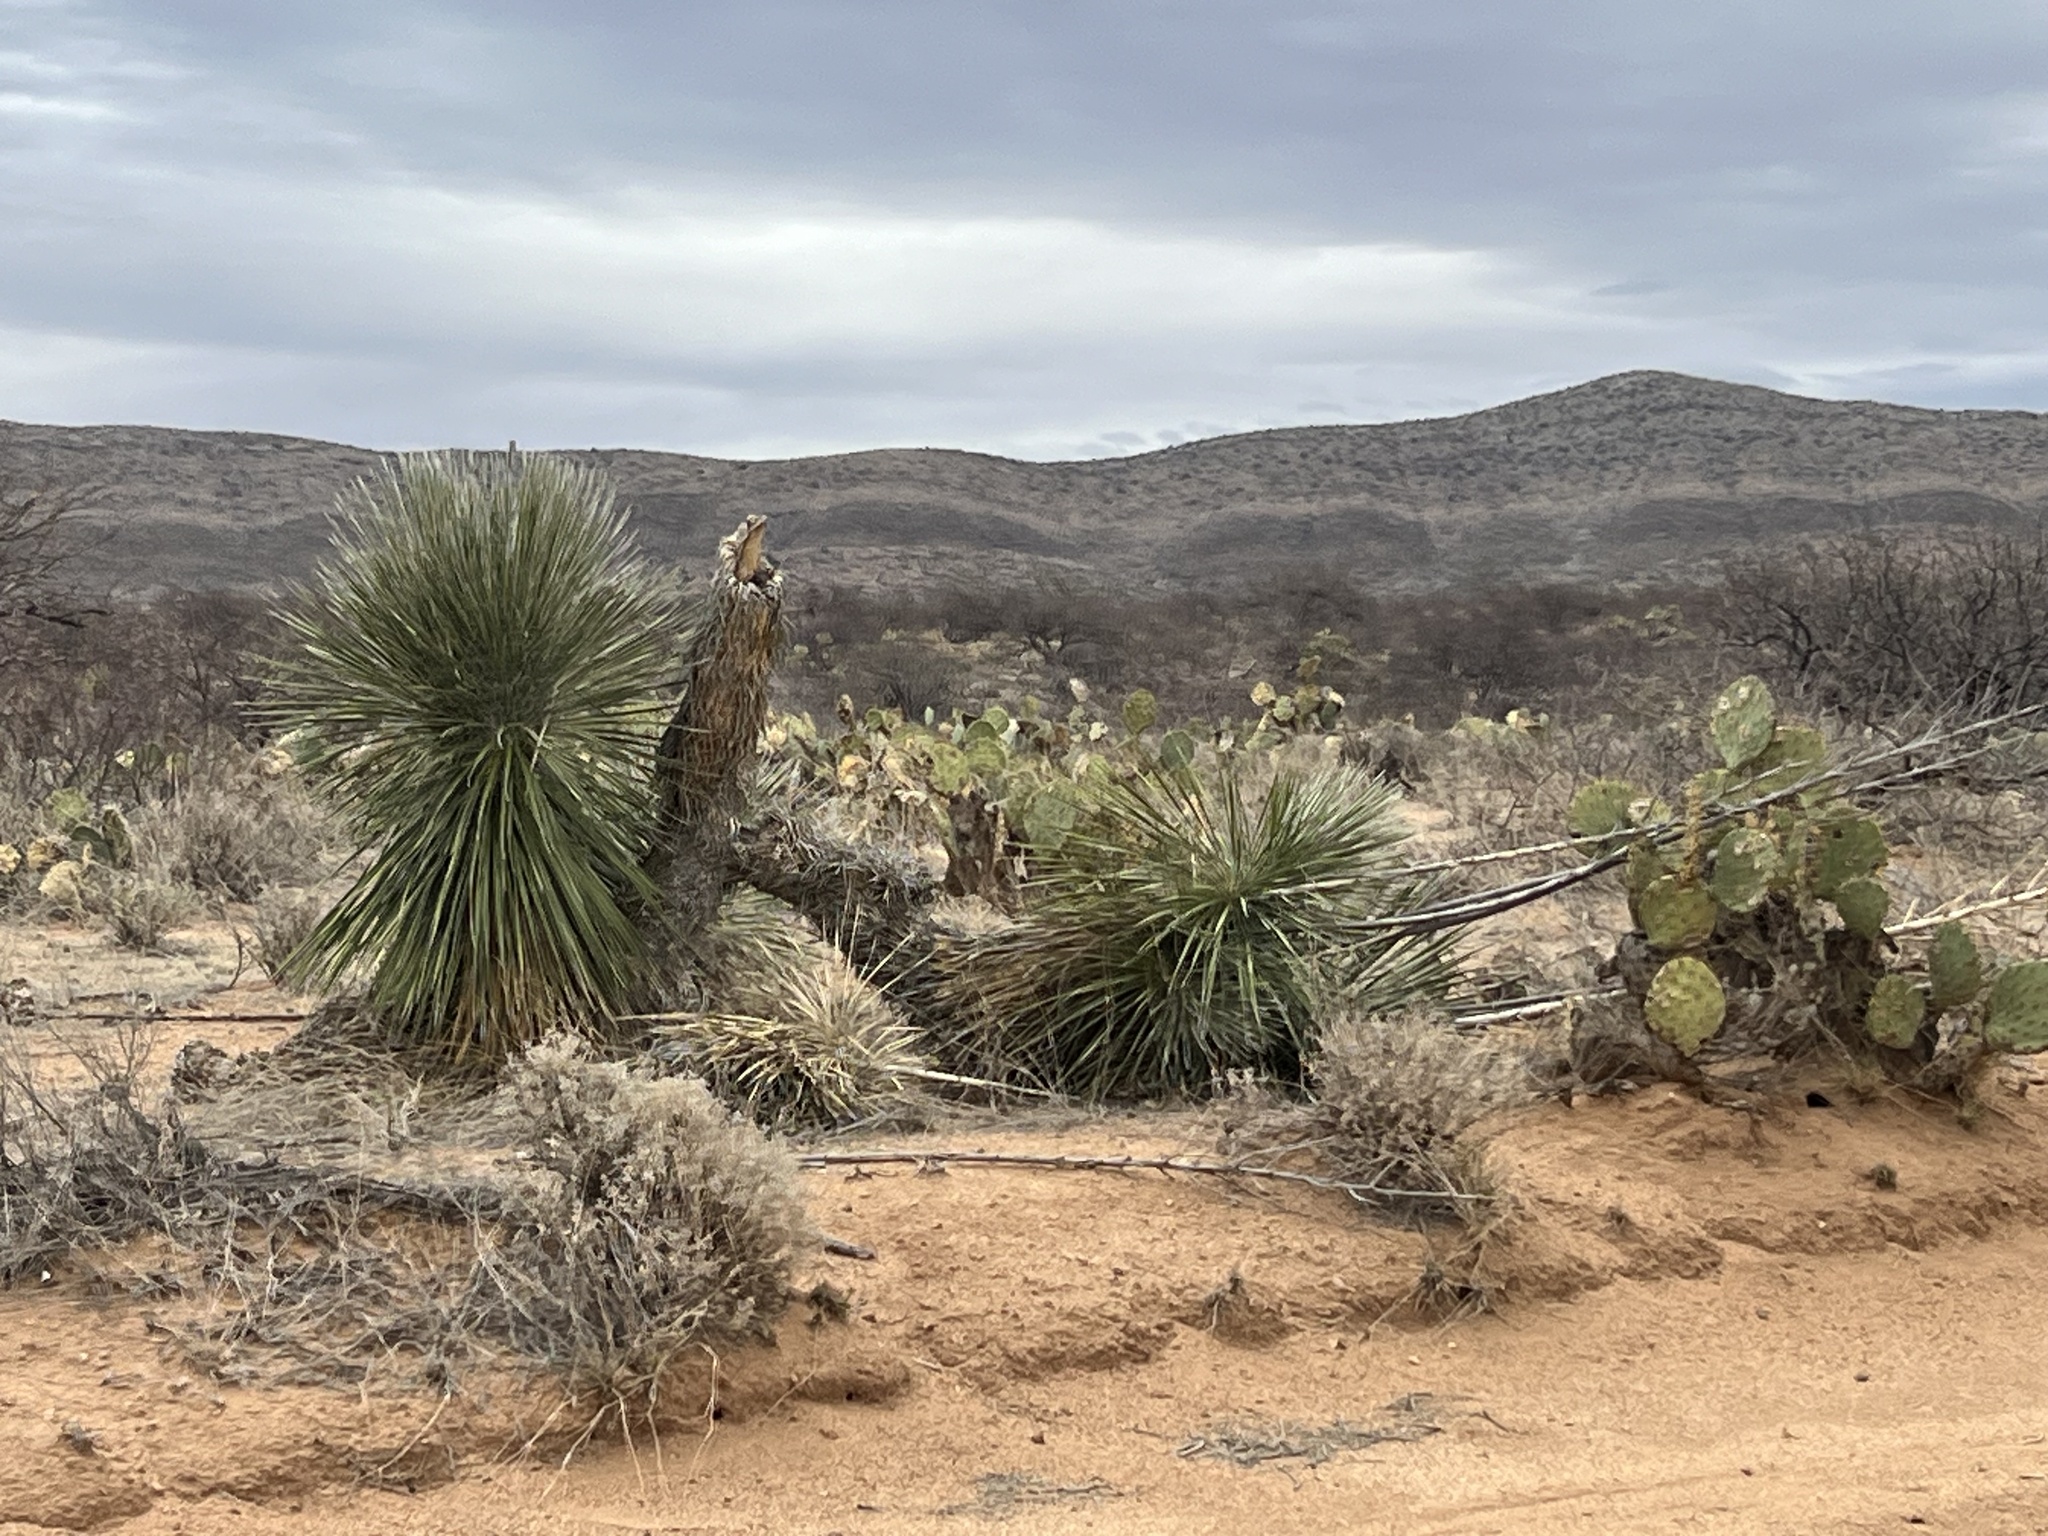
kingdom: Plantae
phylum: Tracheophyta
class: Liliopsida
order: Asparagales
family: Asparagaceae
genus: Yucca
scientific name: Yucca elata
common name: Palmella
